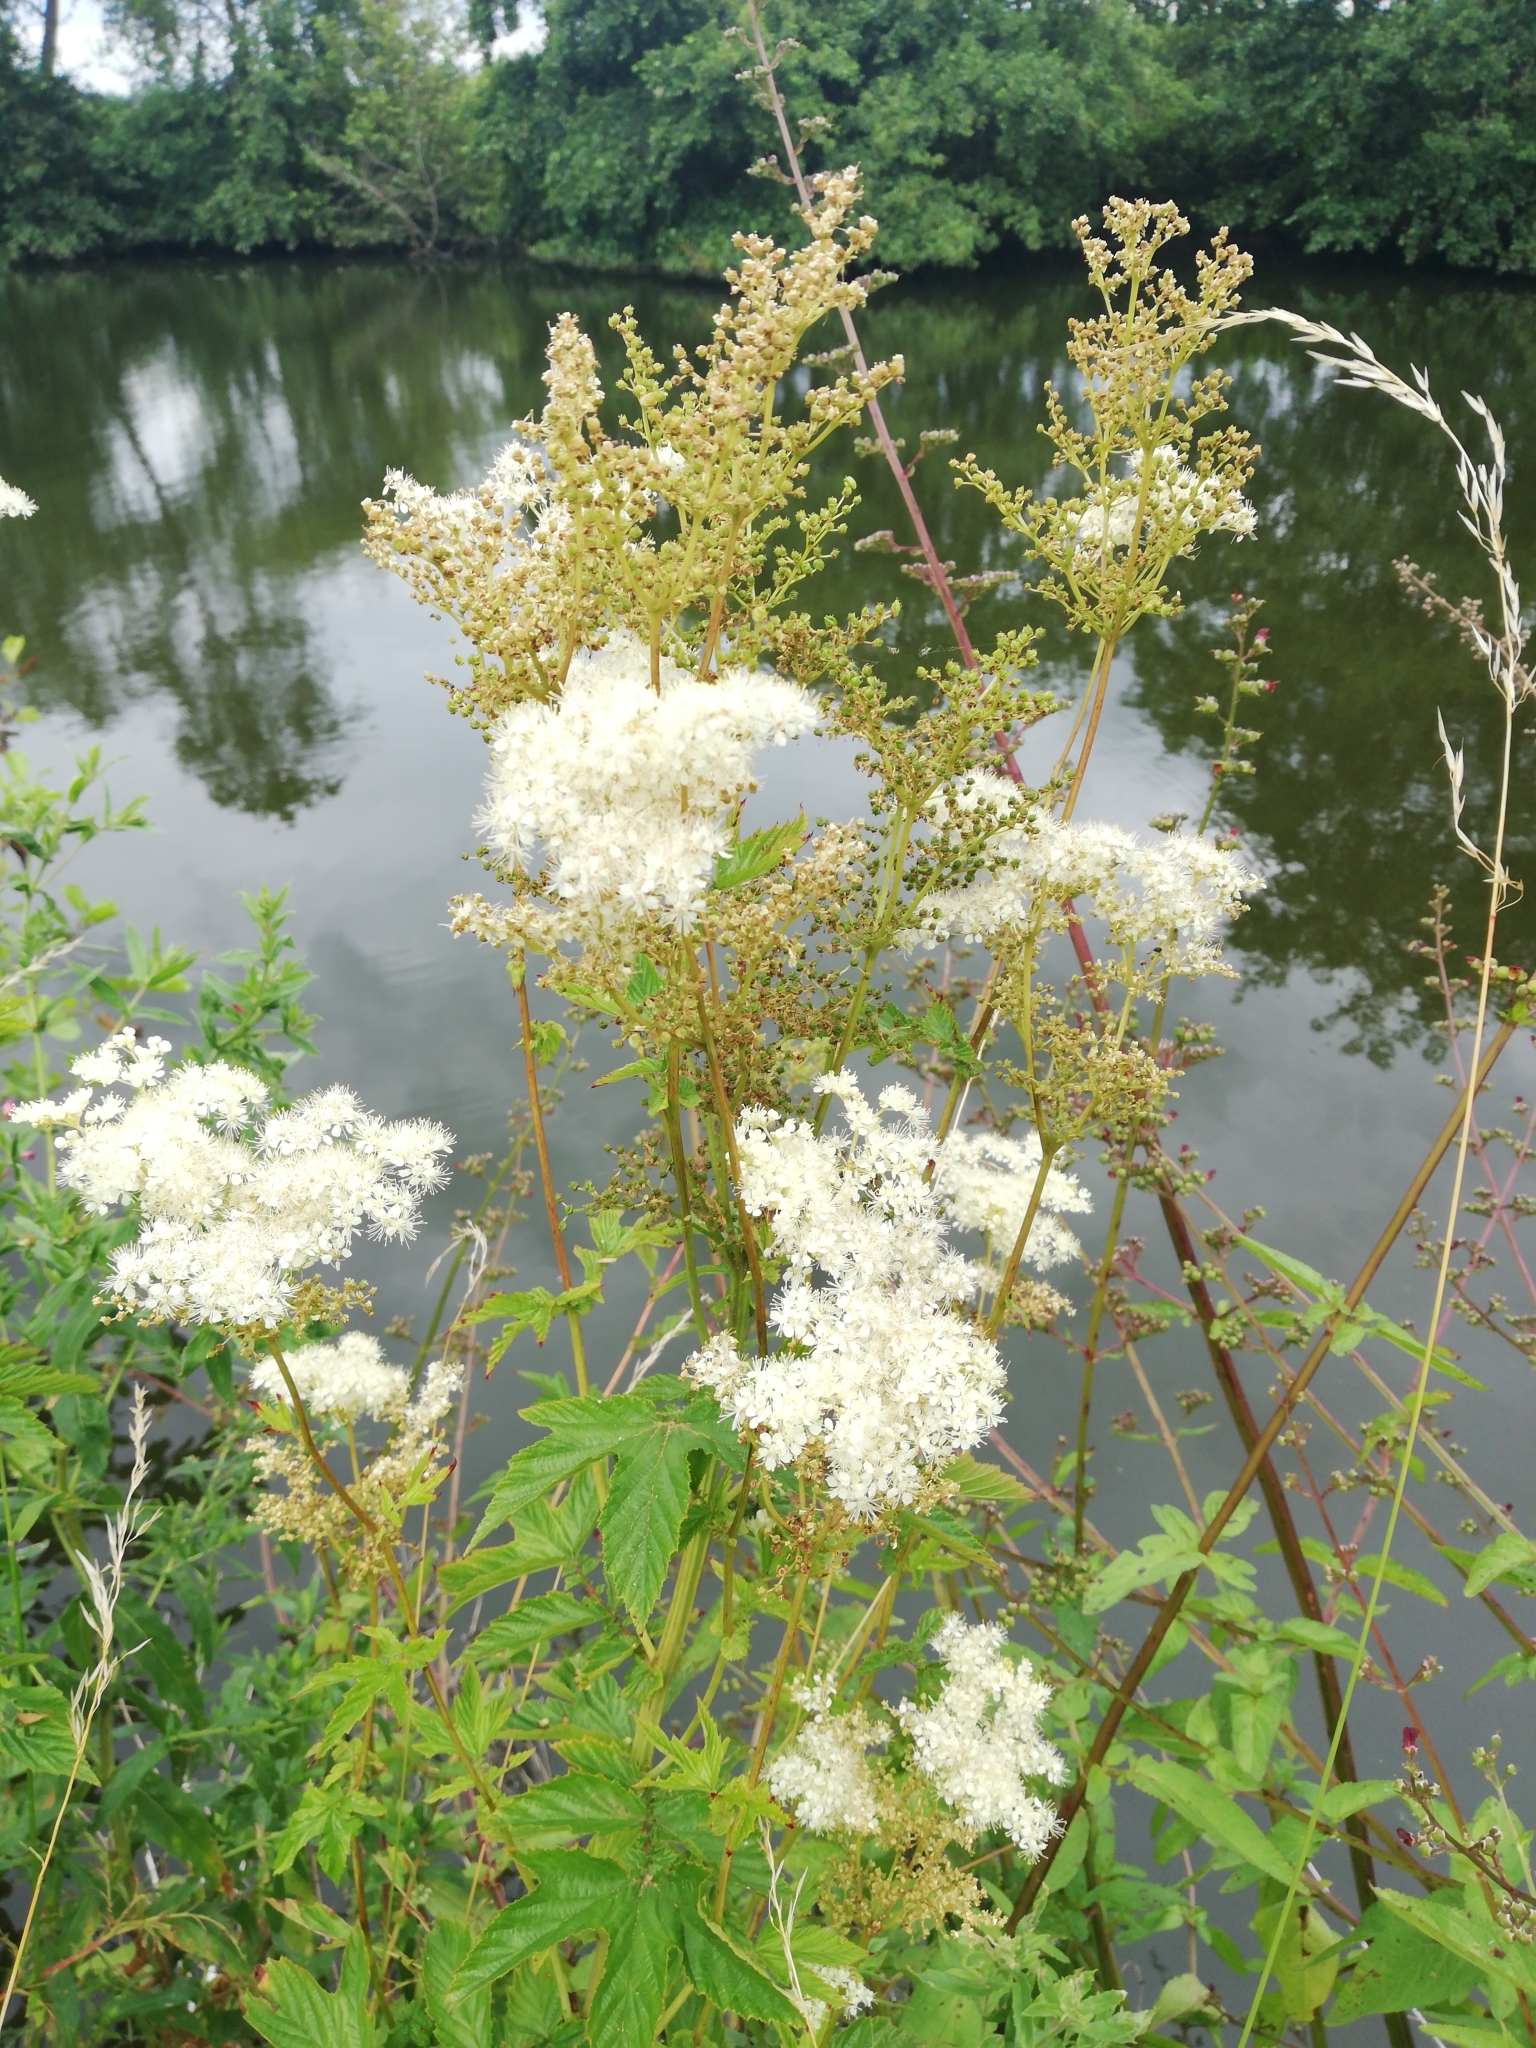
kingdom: Plantae
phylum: Tracheophyta
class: Magnoliopsida
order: Rosales
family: Rosaceae
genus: Filipendula
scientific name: Filipendula ulmaria
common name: Meadowsweet
